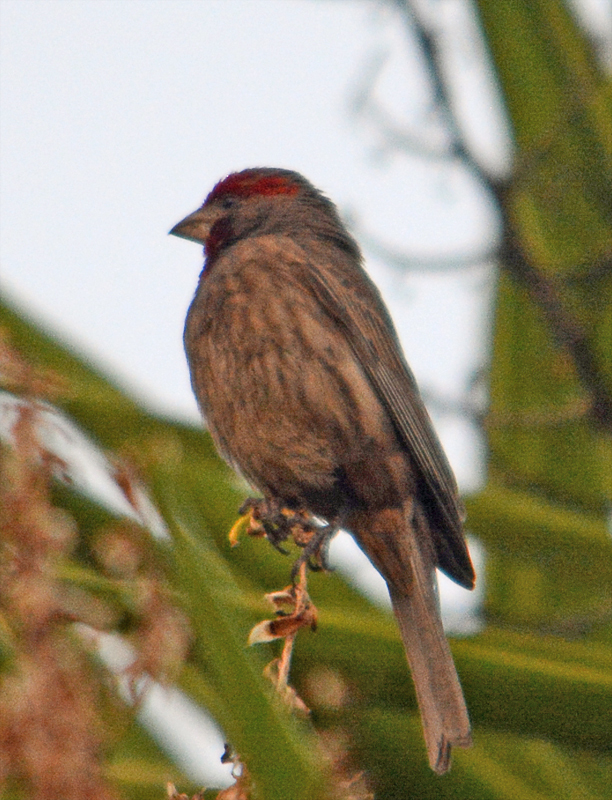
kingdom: Animalia
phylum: Chordata
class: Aves
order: Passeriformes
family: Fringillidae
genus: Haemorhous
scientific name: Haemorhous mexicanus
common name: House finch
